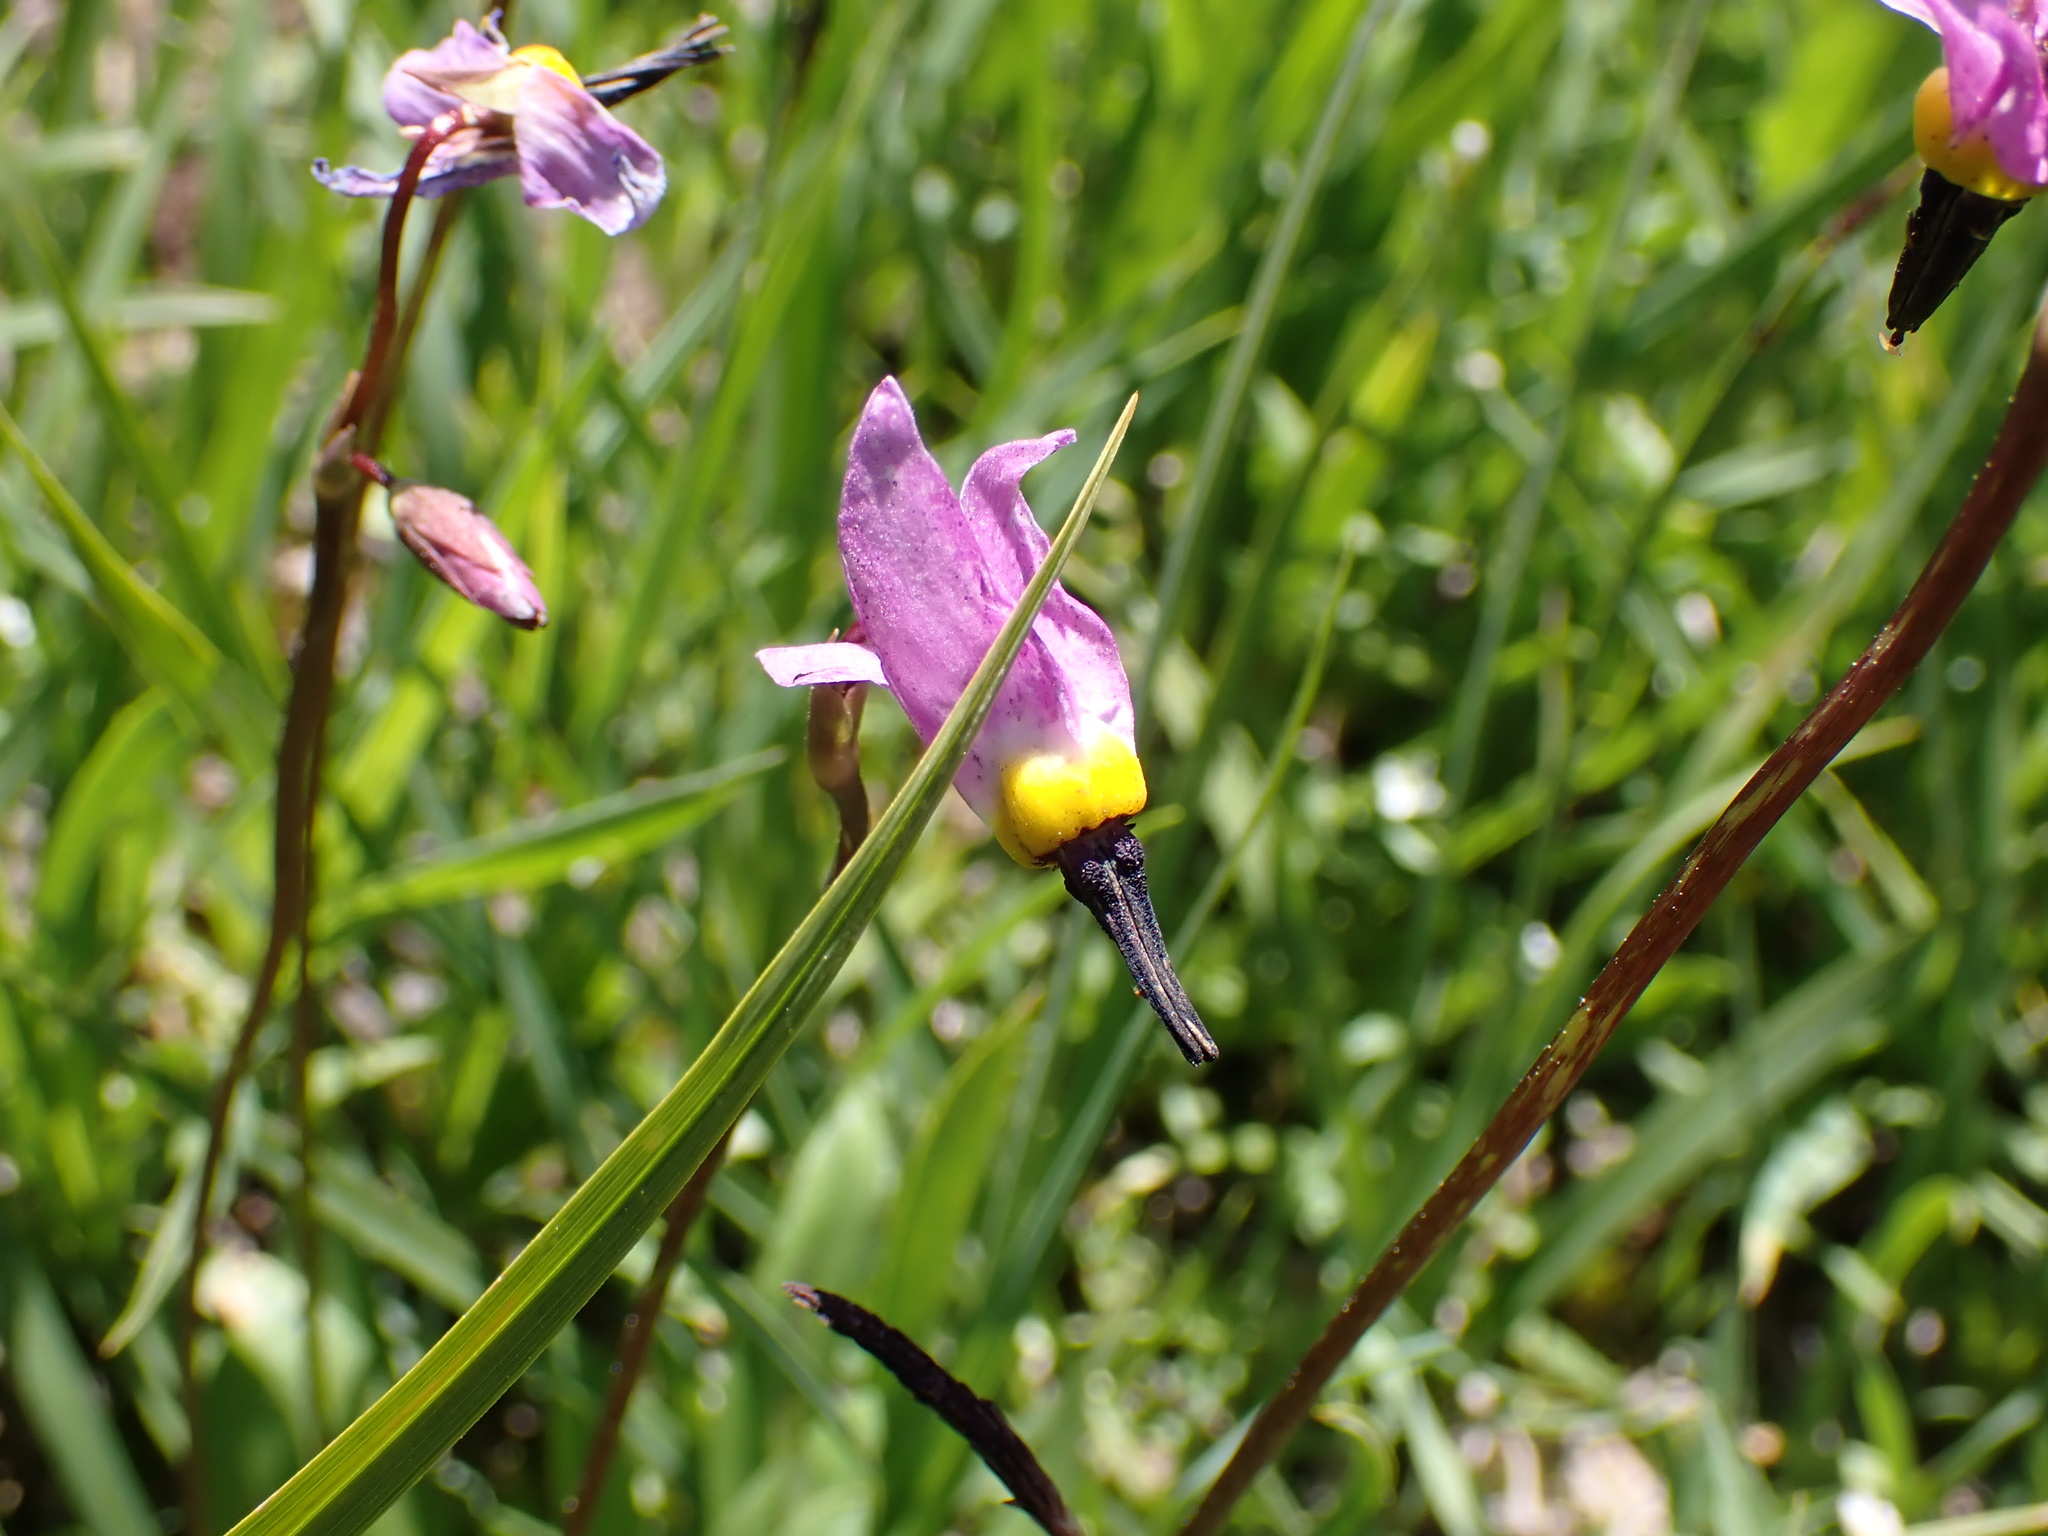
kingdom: Plantae
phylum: Tracheophyta
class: Magnoliopsida
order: Ericales
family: Primulaceae
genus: Dodecatheon
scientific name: Dodecatheon alpinum
